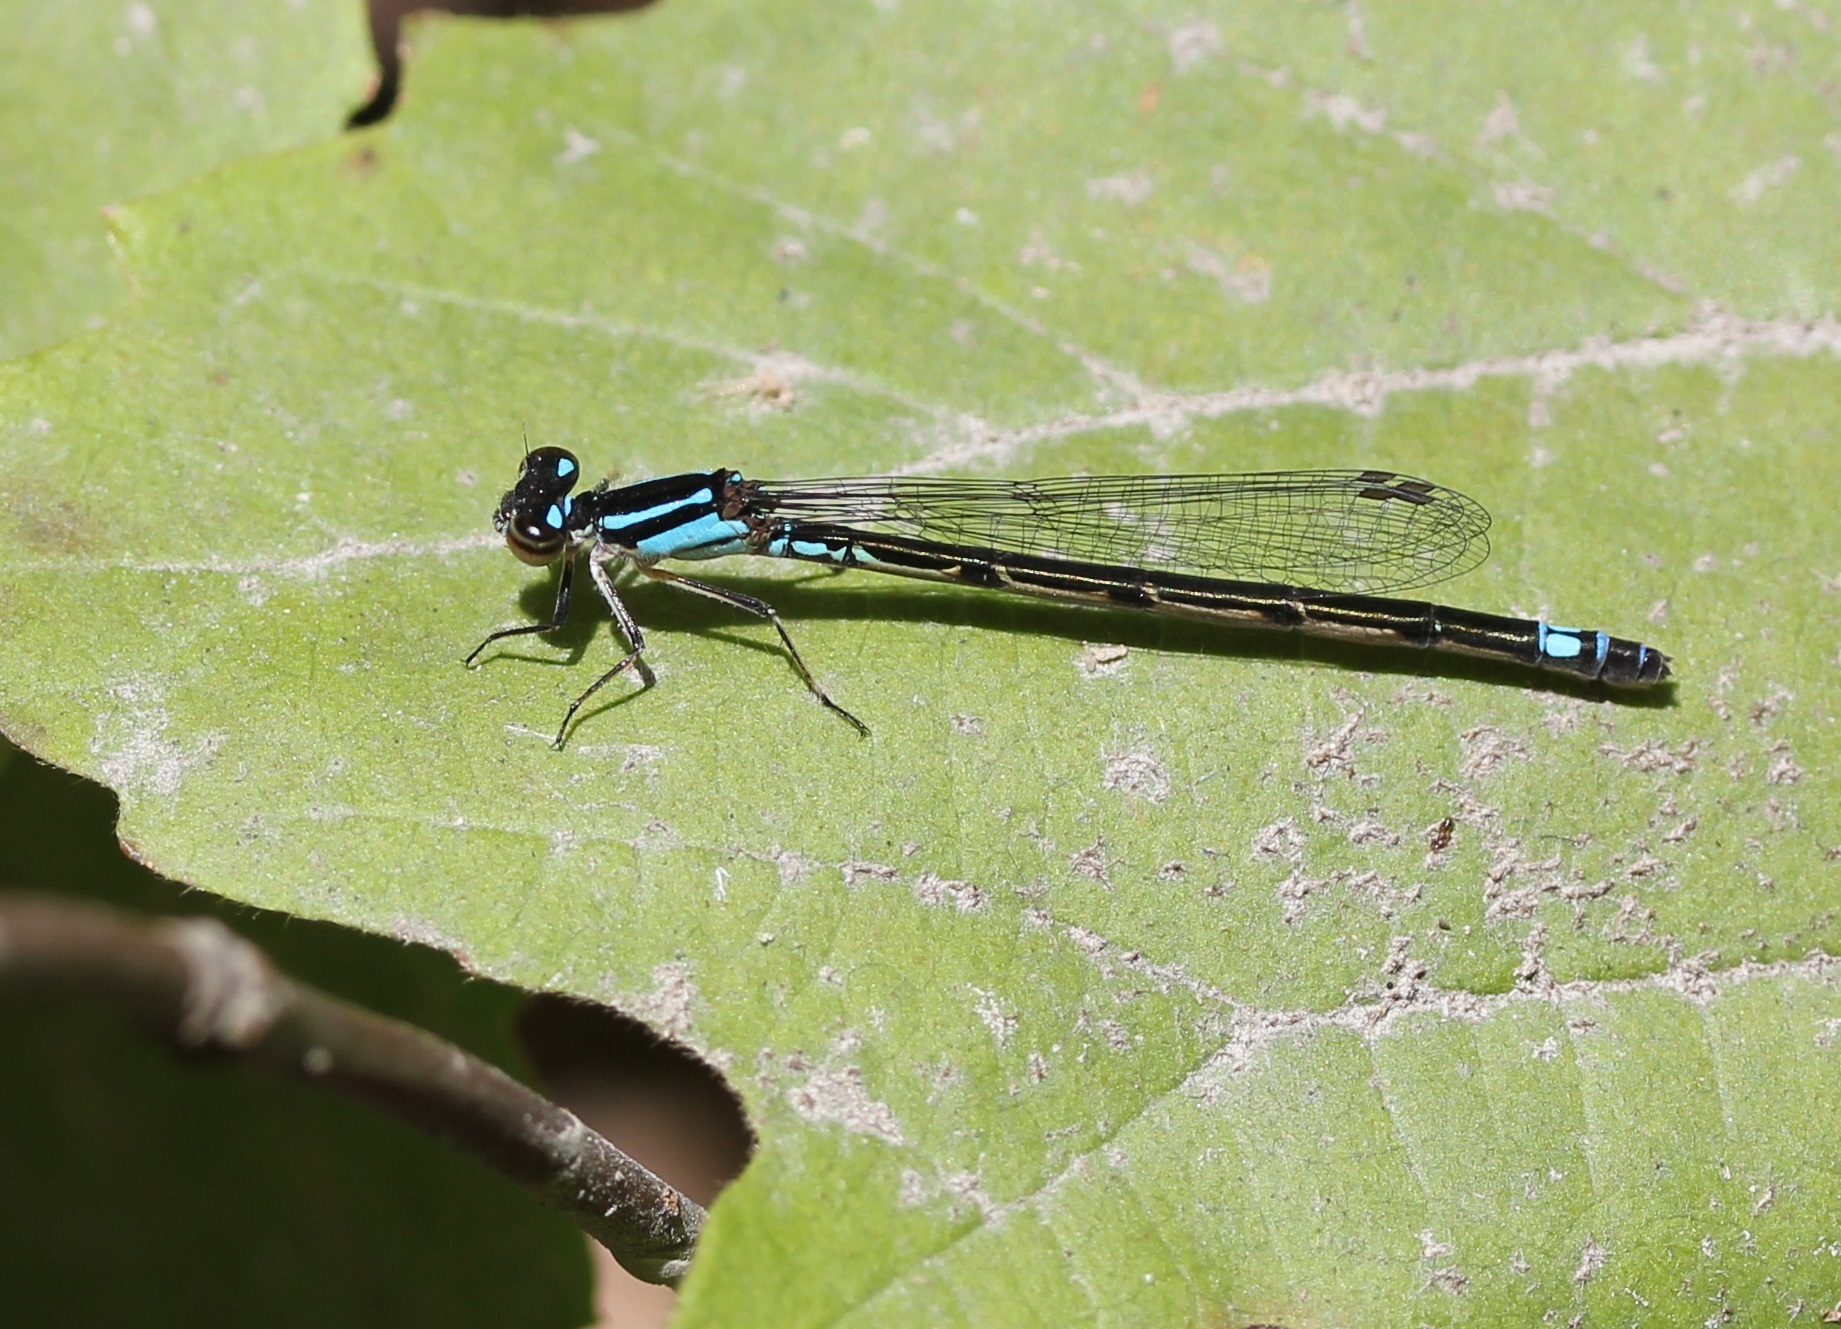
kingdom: Animalia
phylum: Arthropoda
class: Insecta
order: Odonata
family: Coenagrionidae
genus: Enallagma
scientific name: Enallagma geminatum
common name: Skimming bluet
